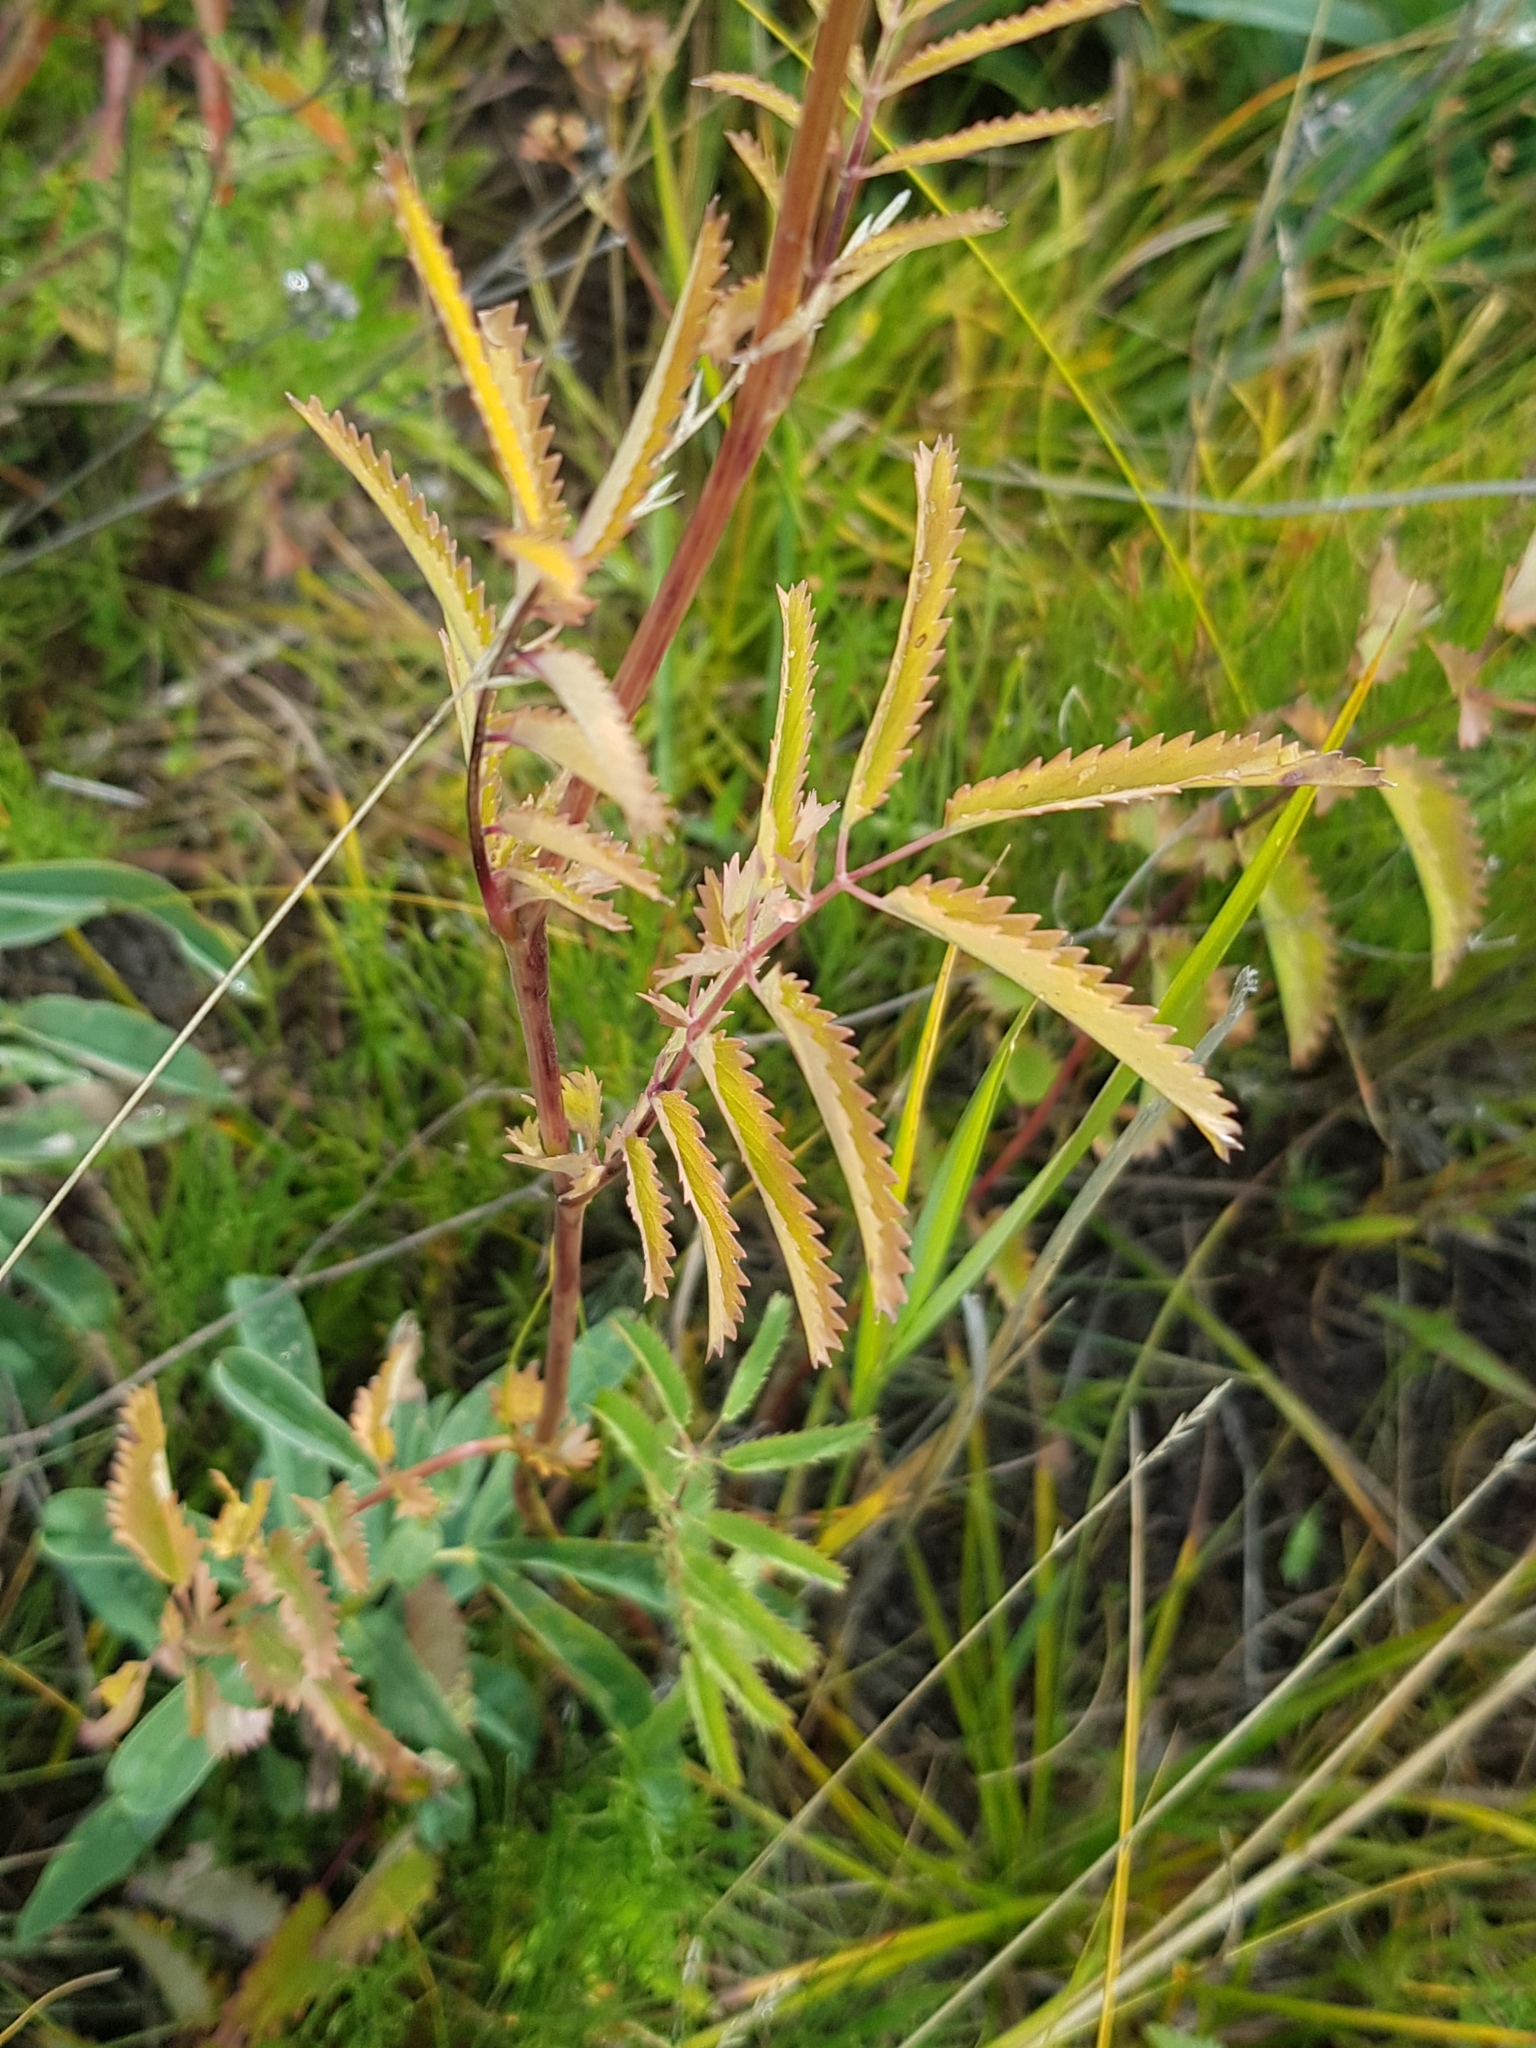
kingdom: Plantae
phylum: Tracheophyta
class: Magnoliopsida
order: Rosales
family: Rosaceae
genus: Poterium
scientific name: Poterium tenuifolium
